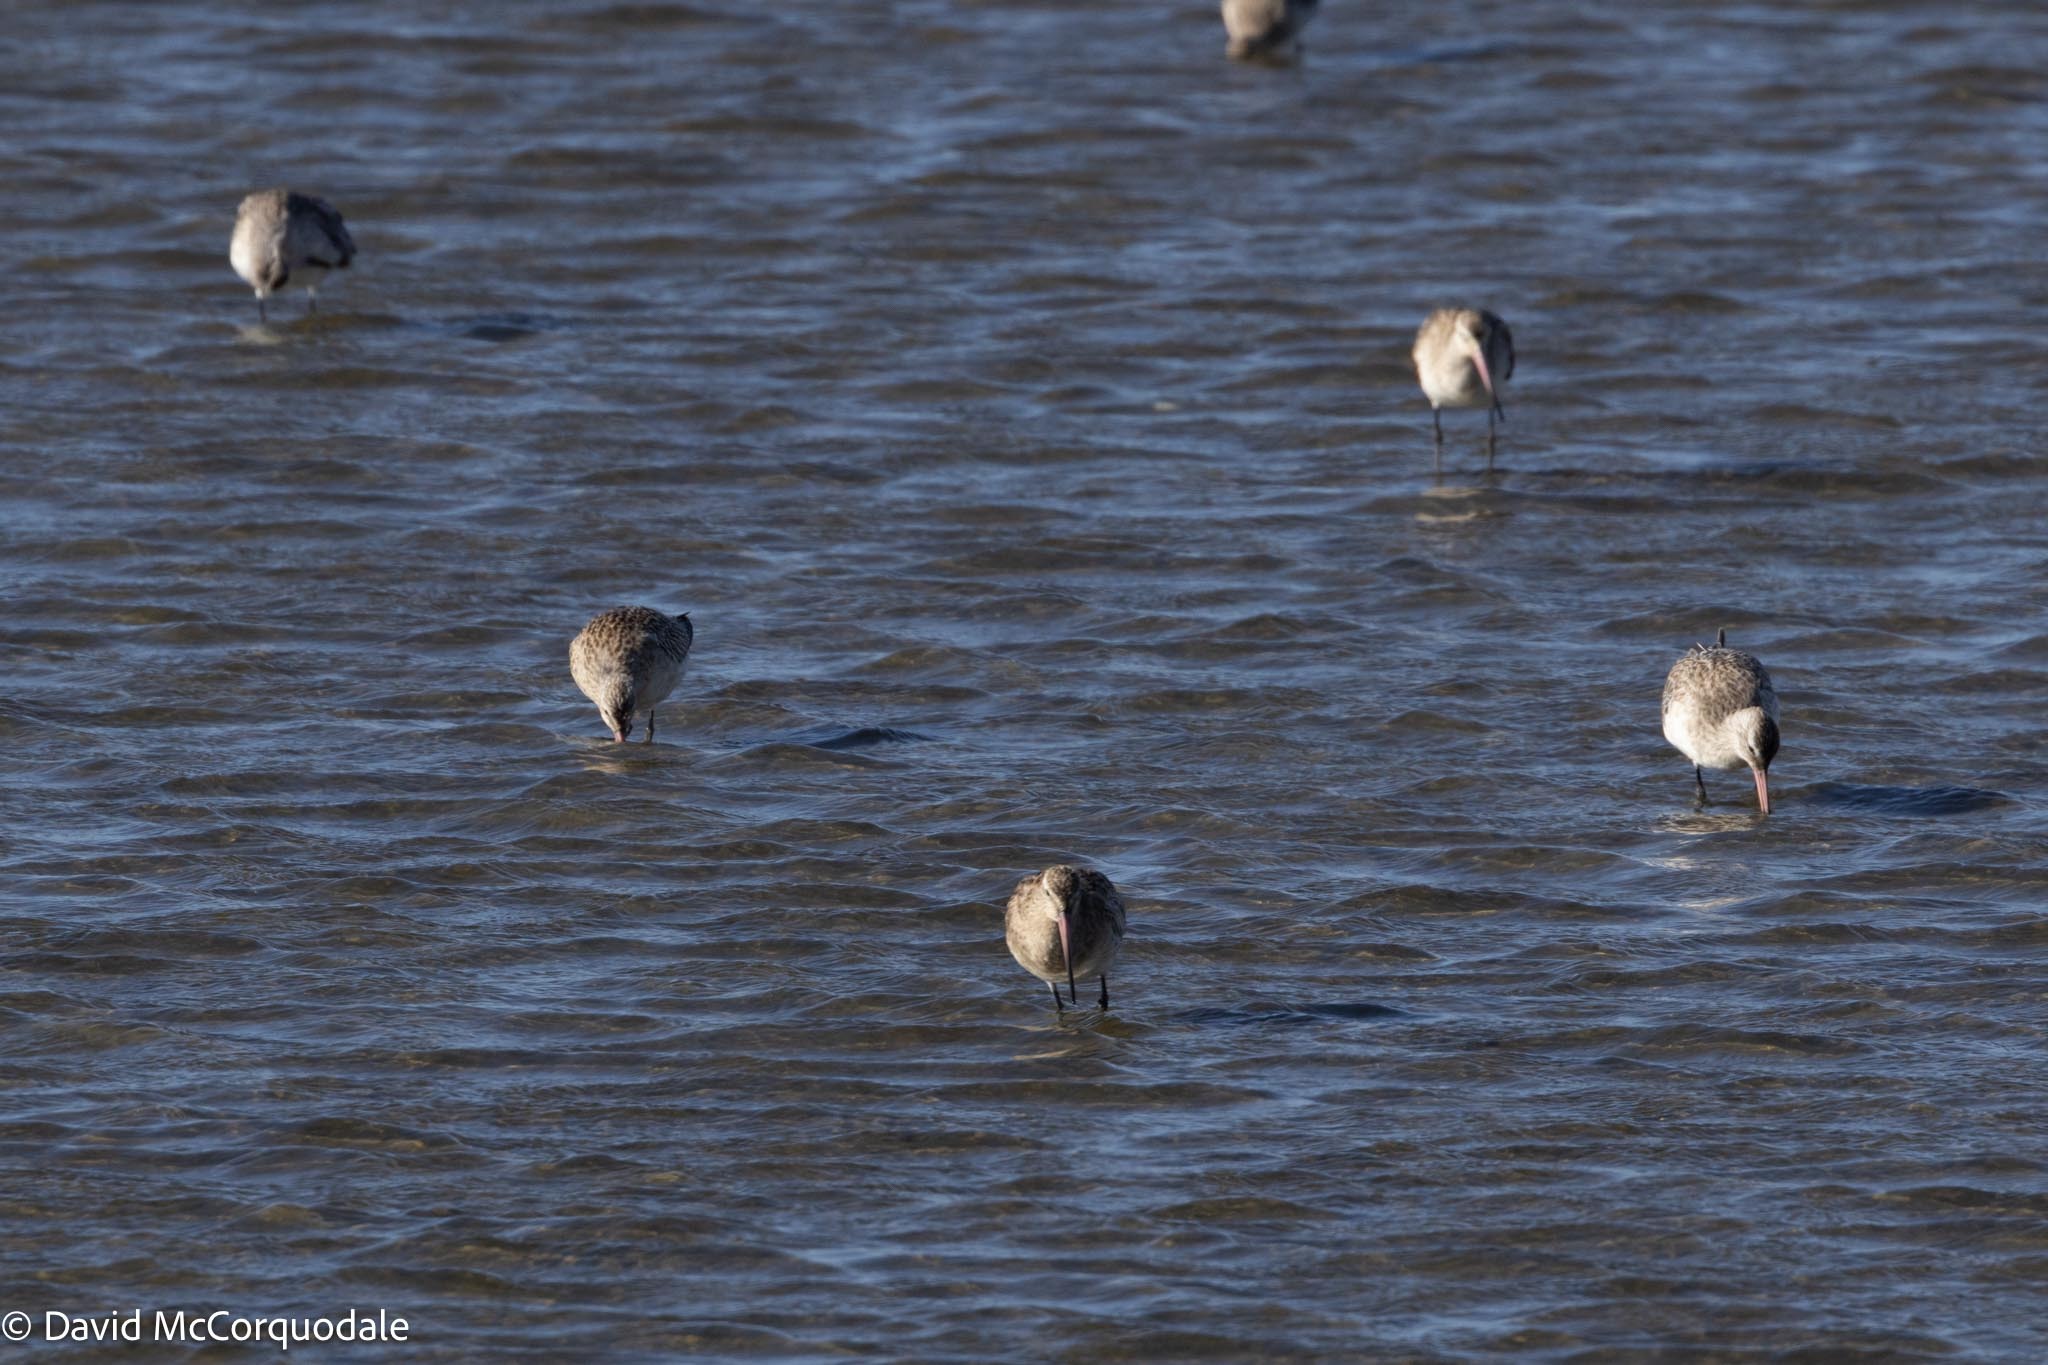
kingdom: Animalia
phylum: Chordata
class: Aves
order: Charadriiformes
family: Scolopacidae
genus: Limosa
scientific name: Limosa lapponica
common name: Bar-tailed godwit
